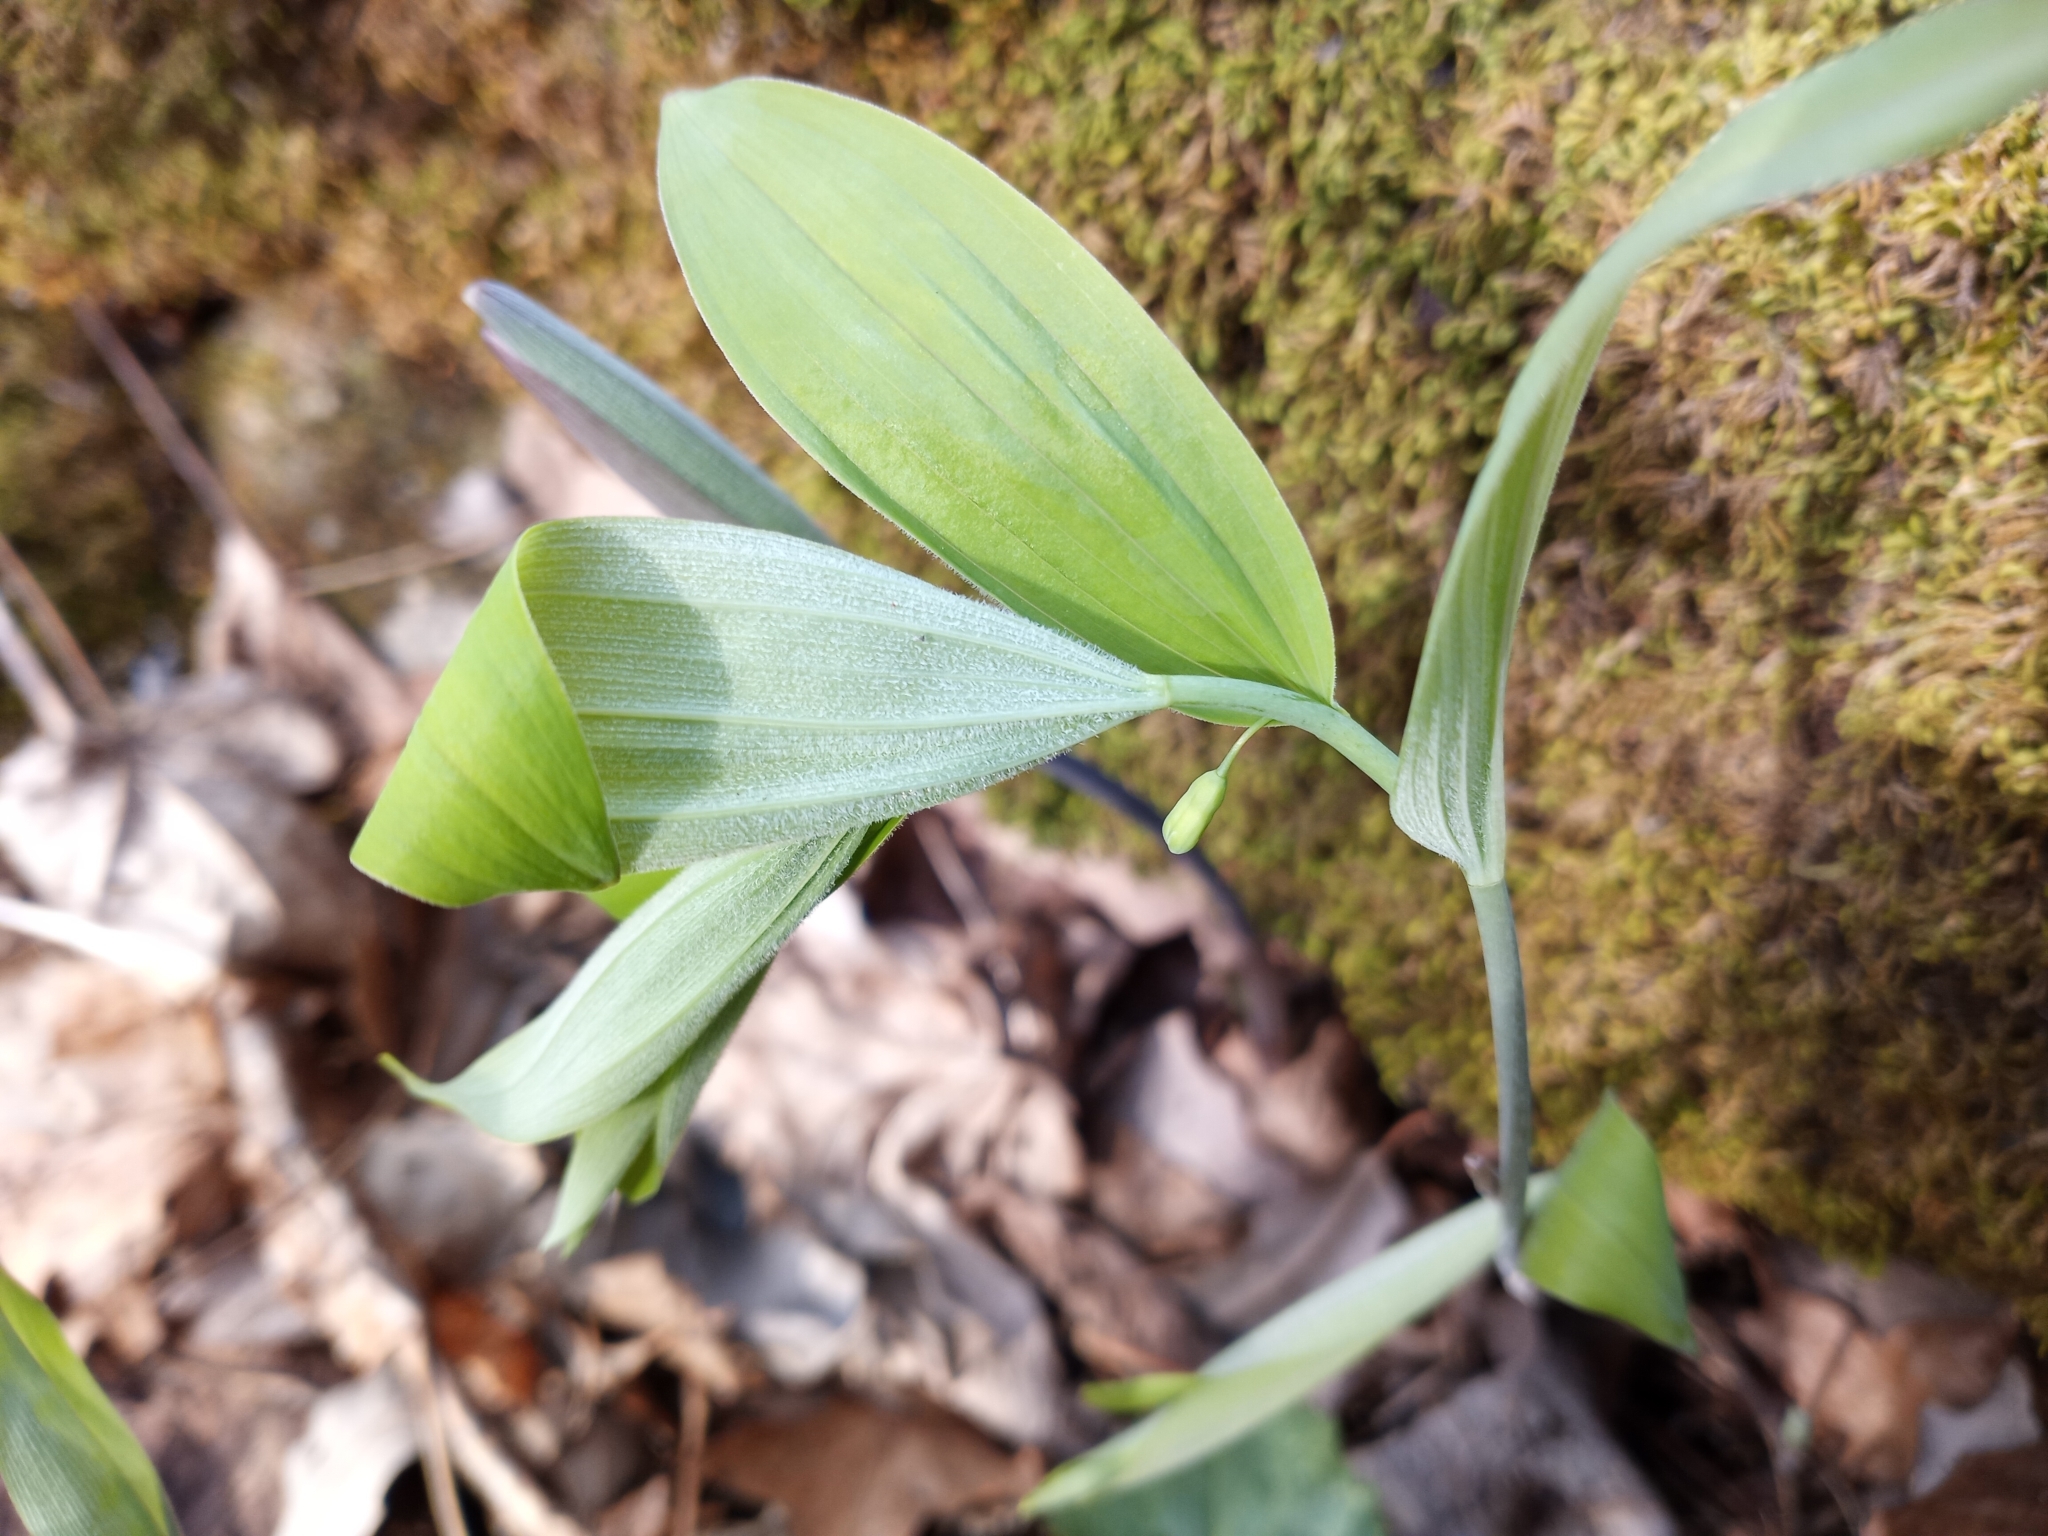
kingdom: Plantae
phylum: Tracheophyta
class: Liliopsida
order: Asparagales
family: Asparagaceae
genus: Polygonatum
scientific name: Polygonatum pubescens
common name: Downy solomon's seal
